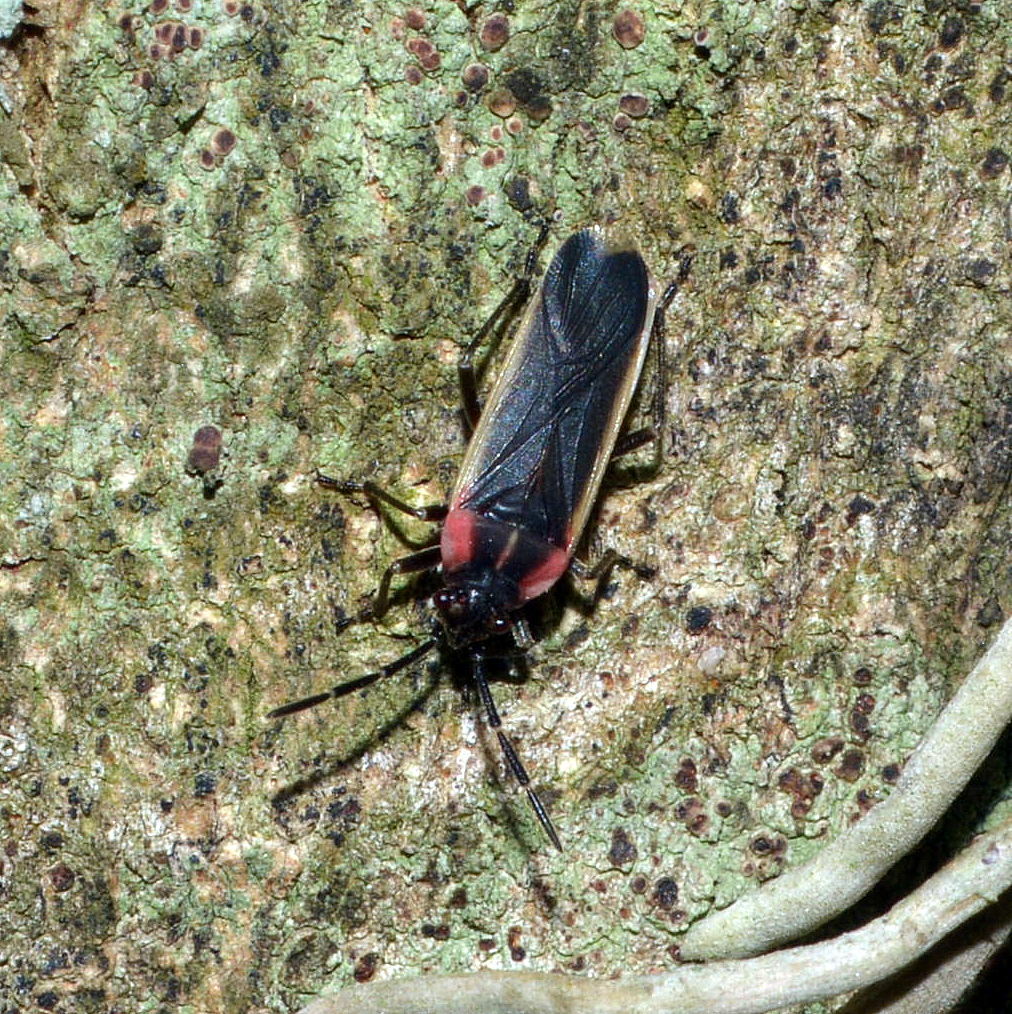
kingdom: Animalia
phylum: Arthropoda
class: Insecta
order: Hemiptera
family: Lygaeidae
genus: Acroleucus
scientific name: Acroleucus coxalis
